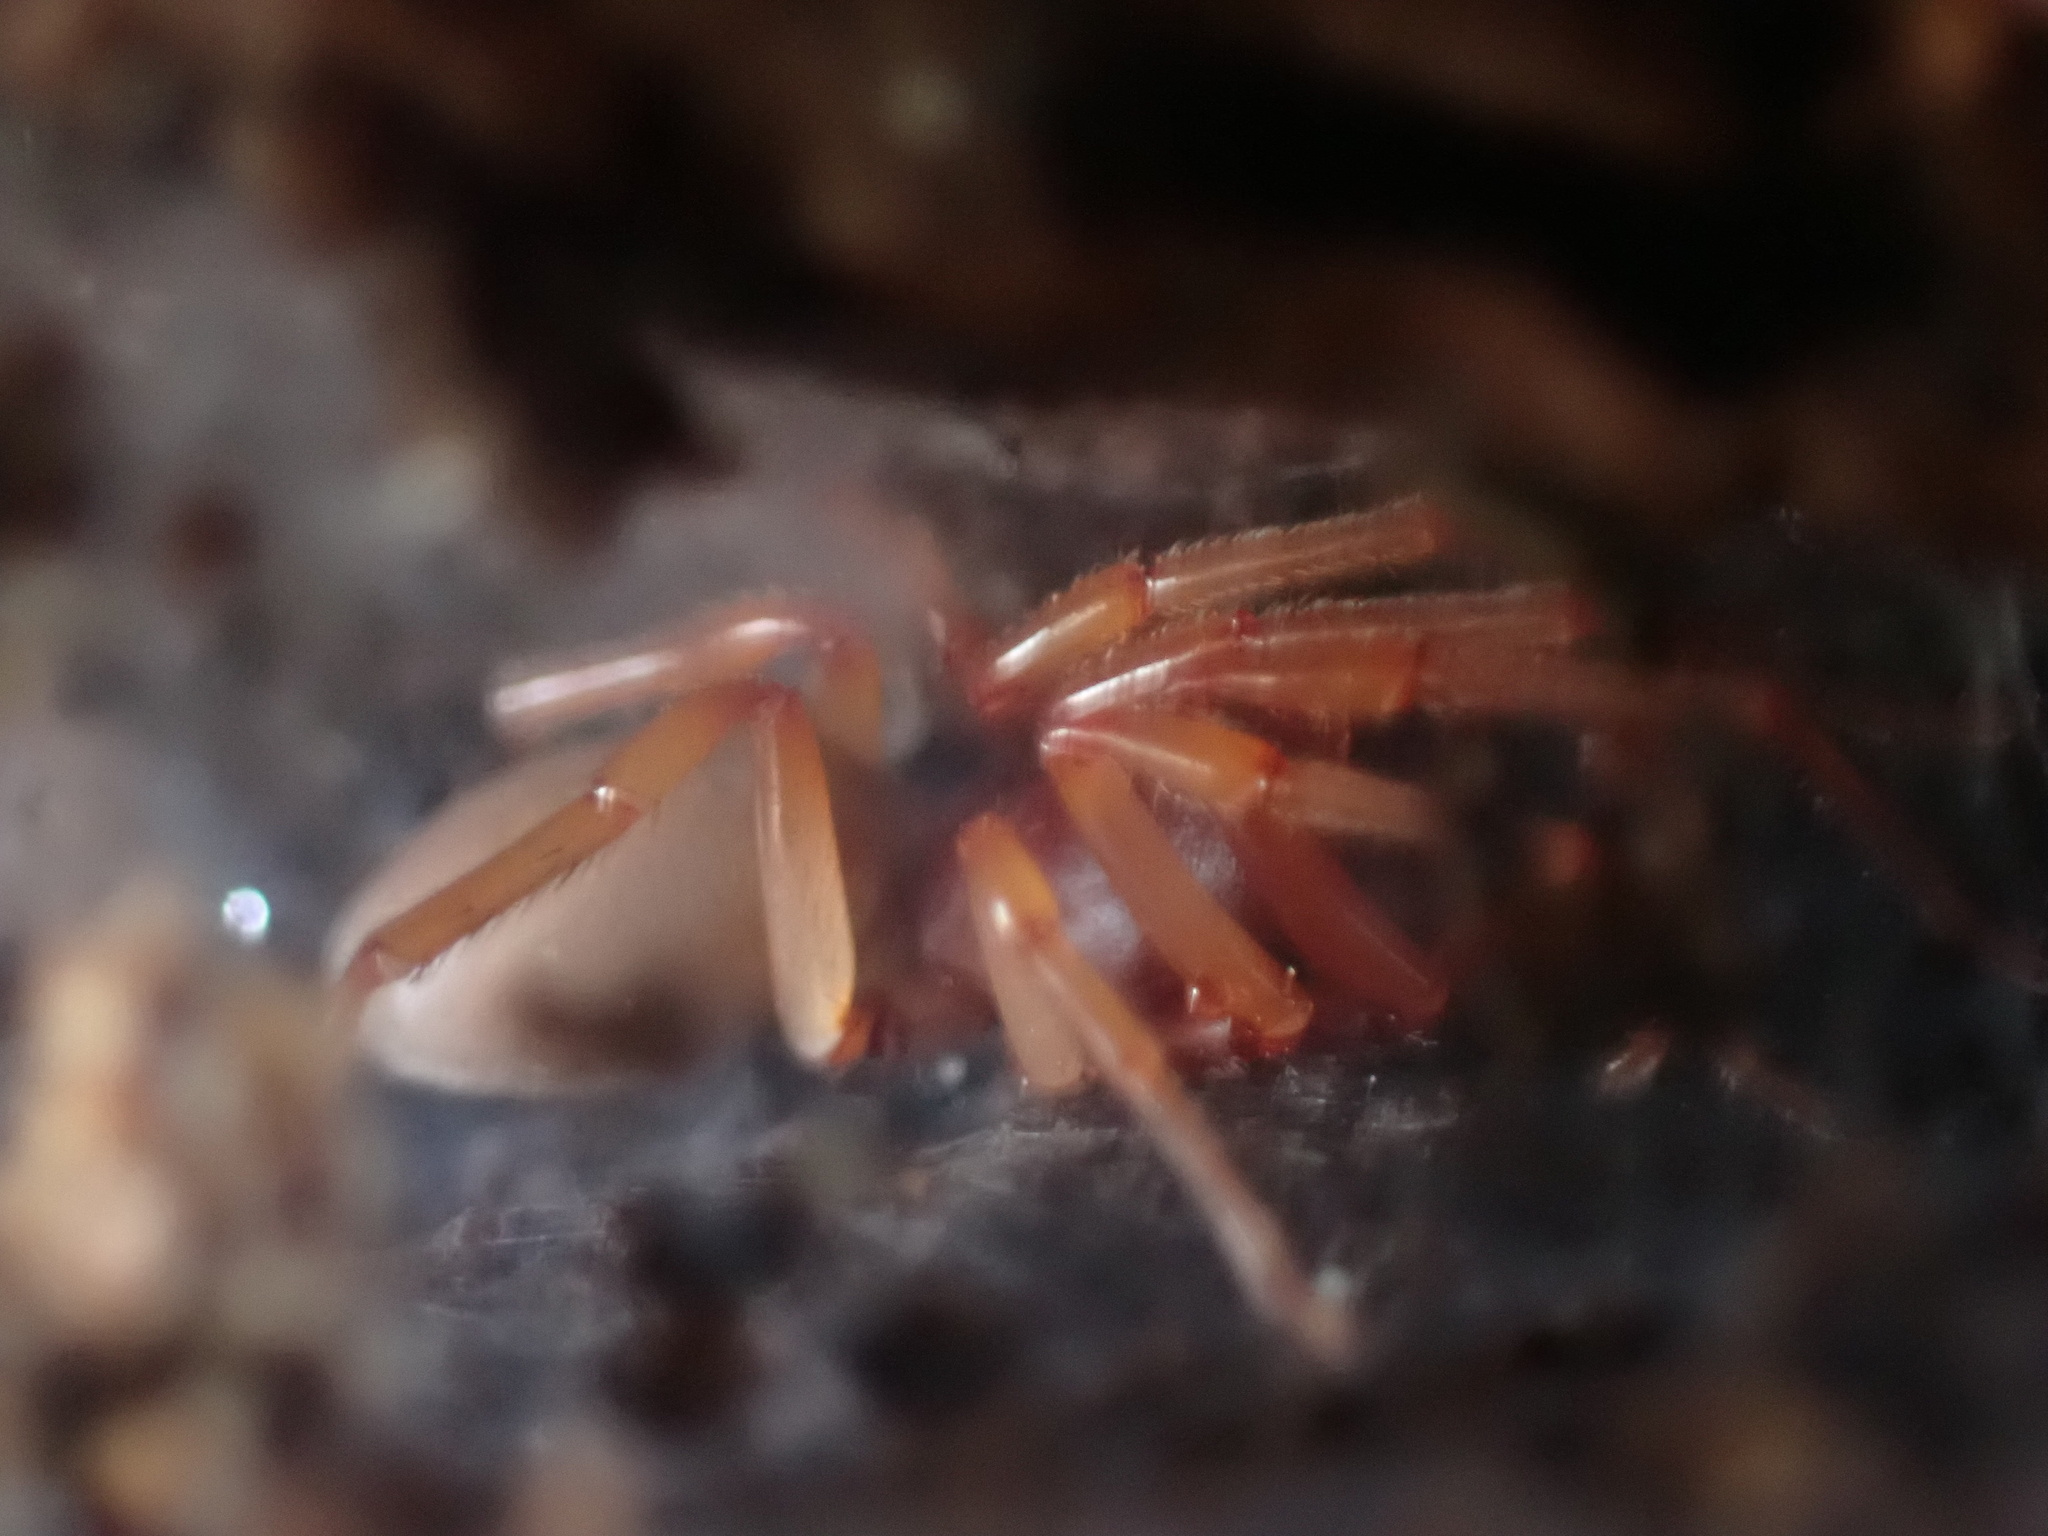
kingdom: Animalia
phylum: Arthropoda
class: Arachnida
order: Araneae
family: Dysderidae
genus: Dysdera
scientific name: Dysdera crocata
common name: Woodlouse spider
